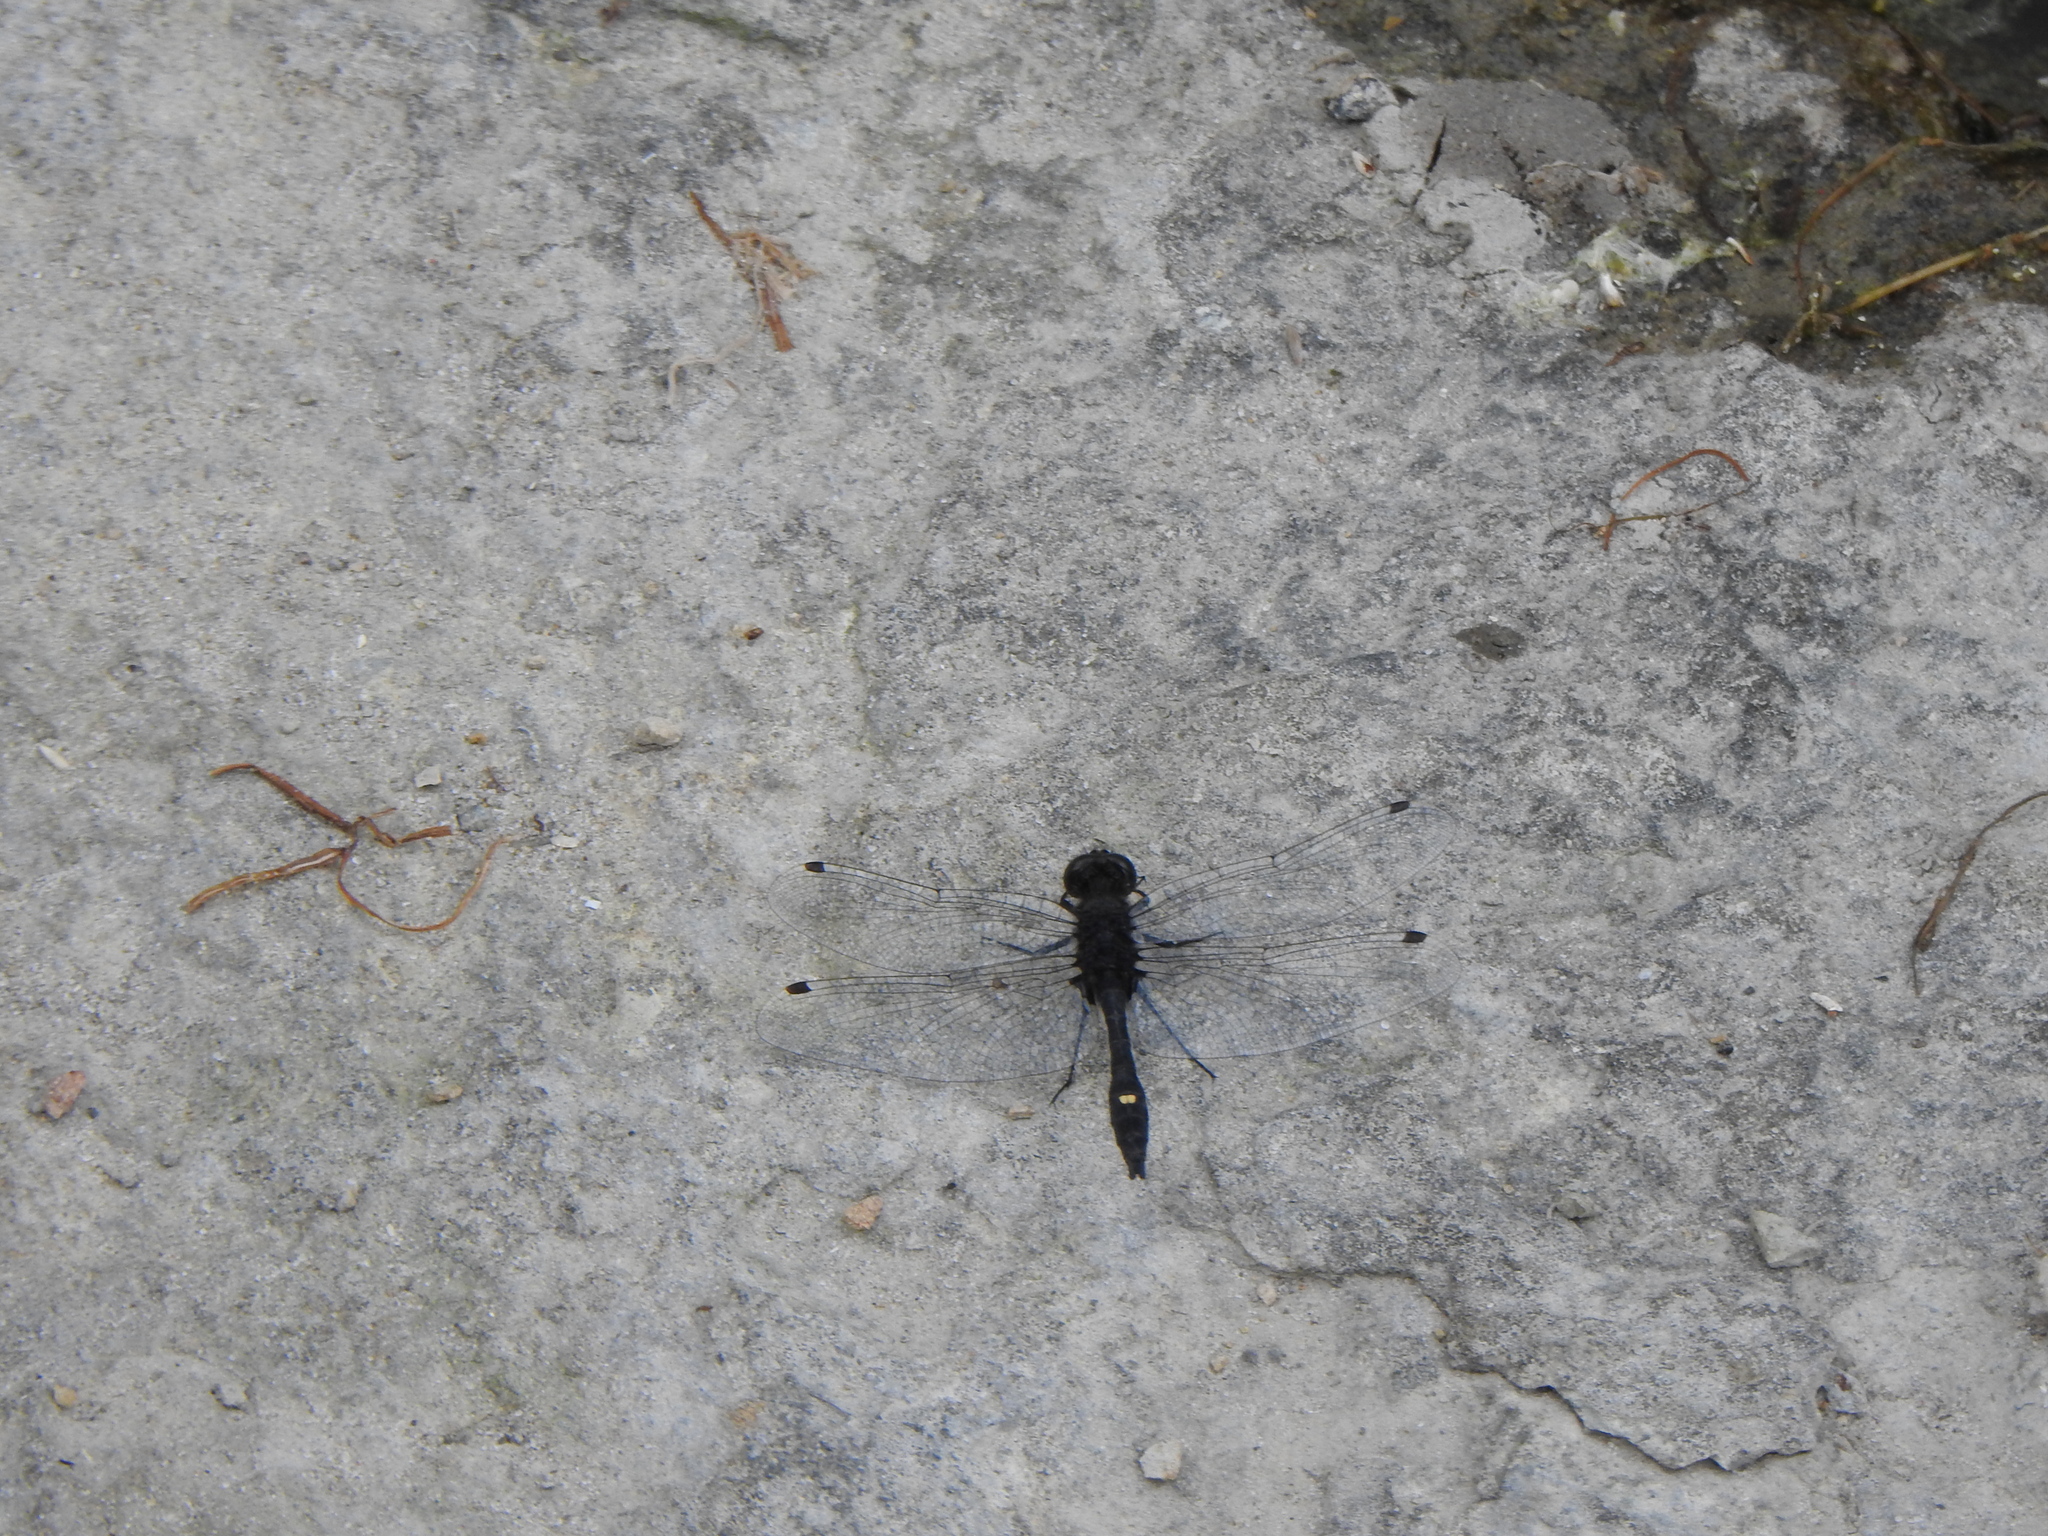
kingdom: Animalia
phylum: Arthropoda
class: Insecta
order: Odonata
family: Libellulidae
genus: Leucorrhinia
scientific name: Leucorrhinia intacta
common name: Dot-tailed whiteface
